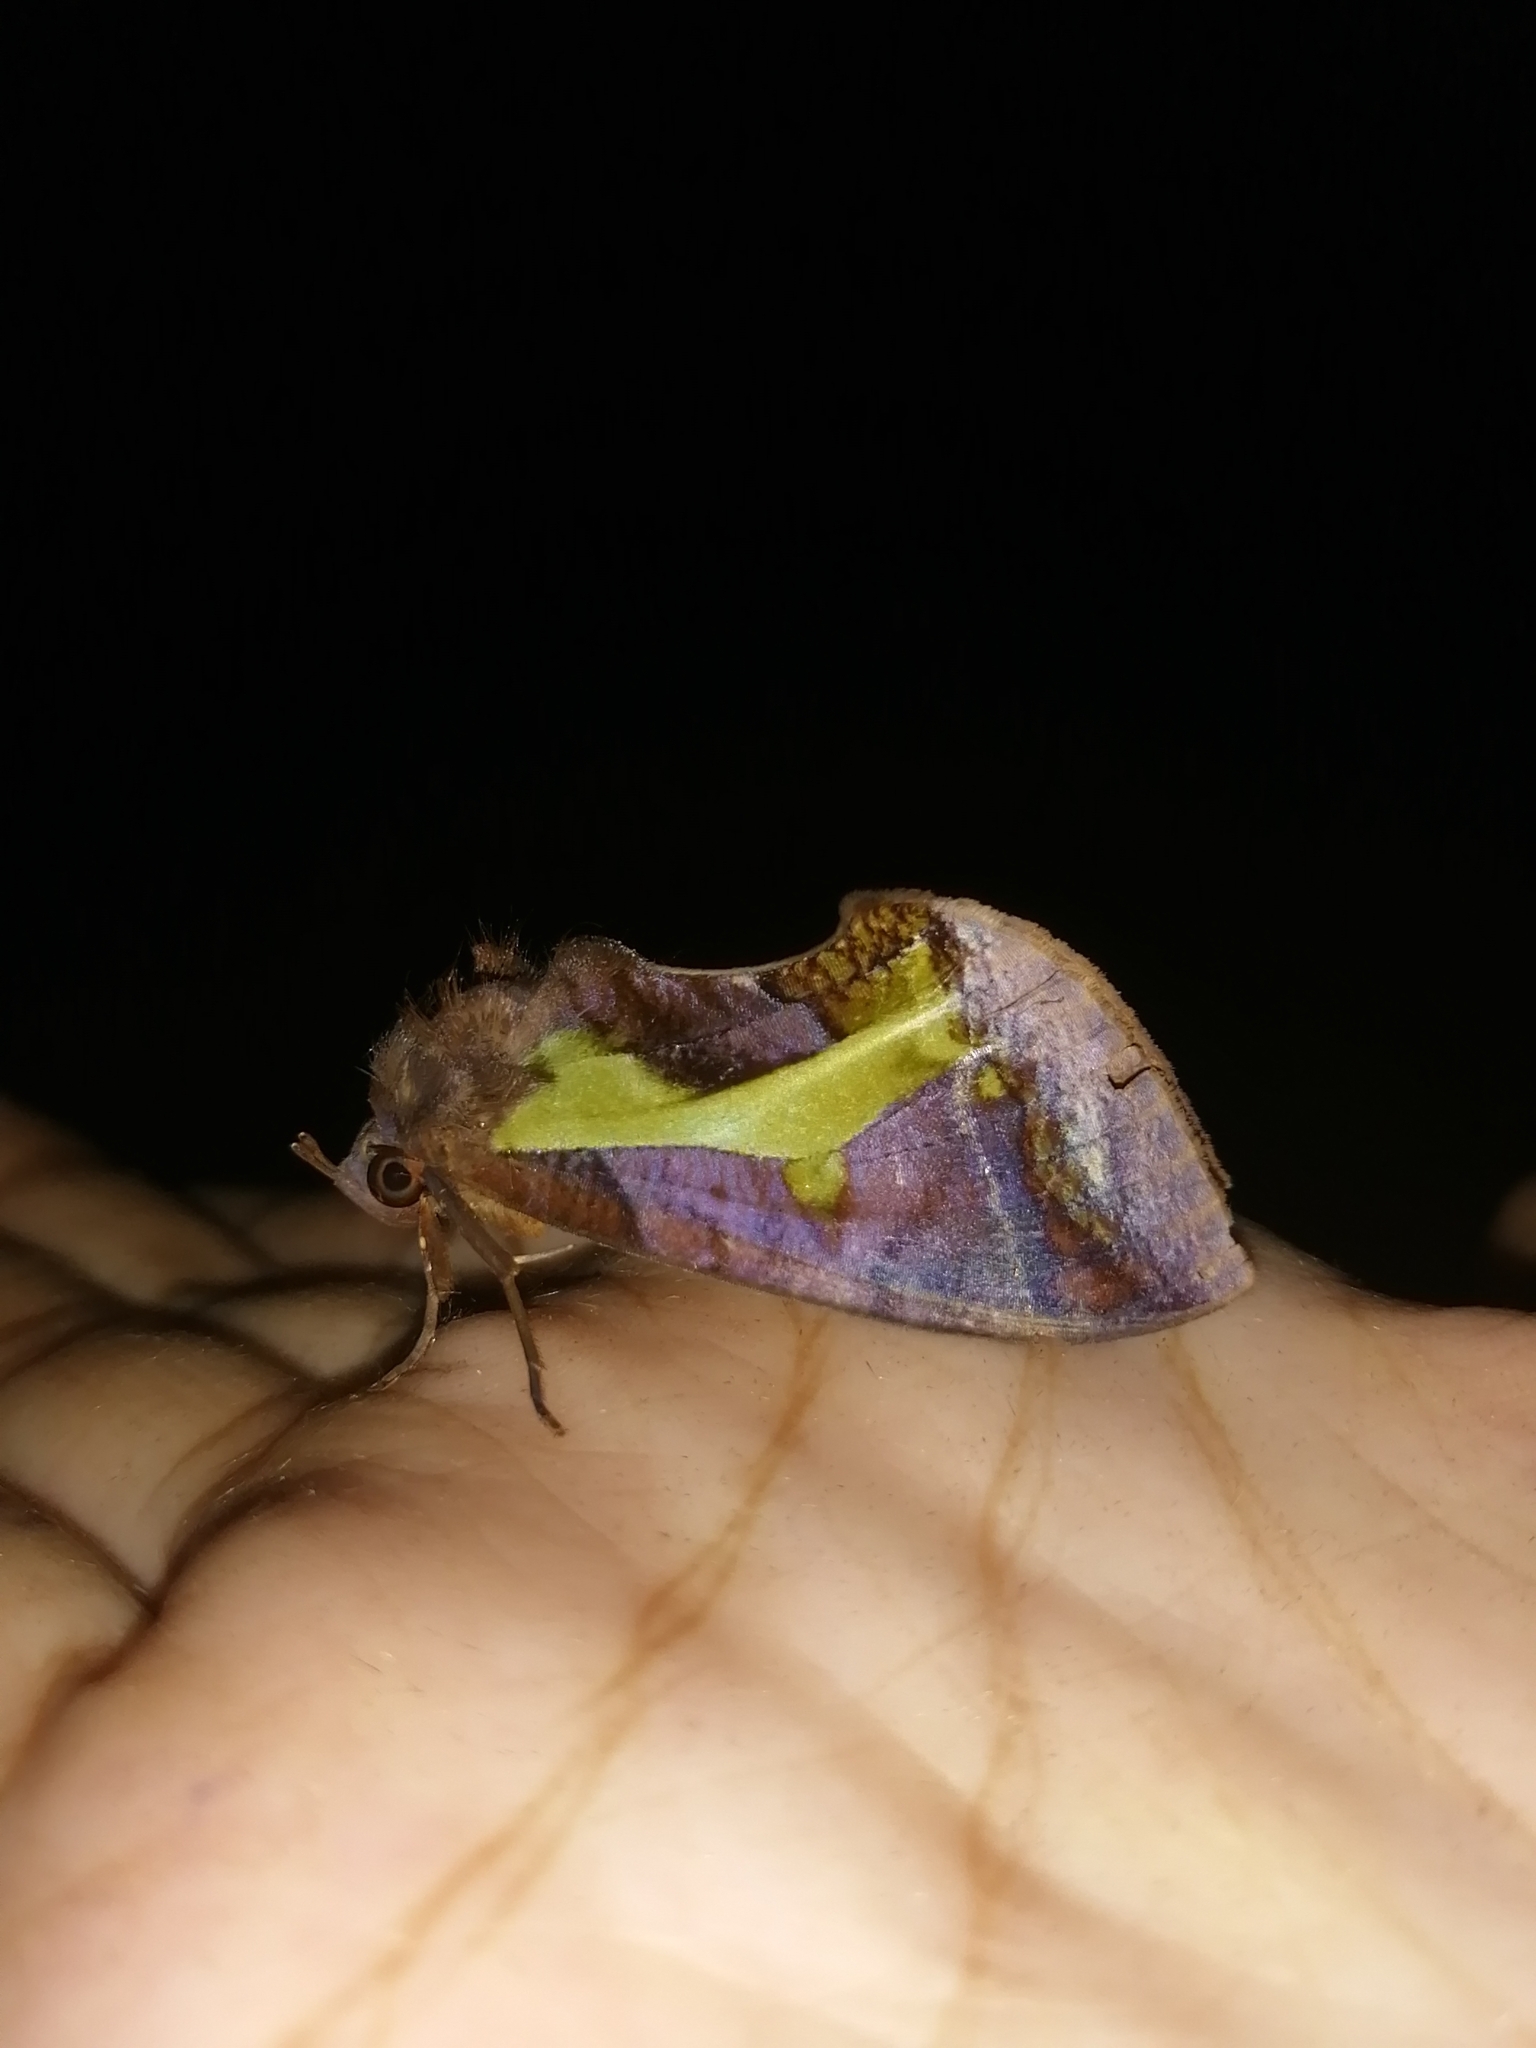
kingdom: Animalia
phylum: Arthropoda
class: Insecta
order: Lepidoptera
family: Erebidae
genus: Eudocima
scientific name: Eudocima homaena
